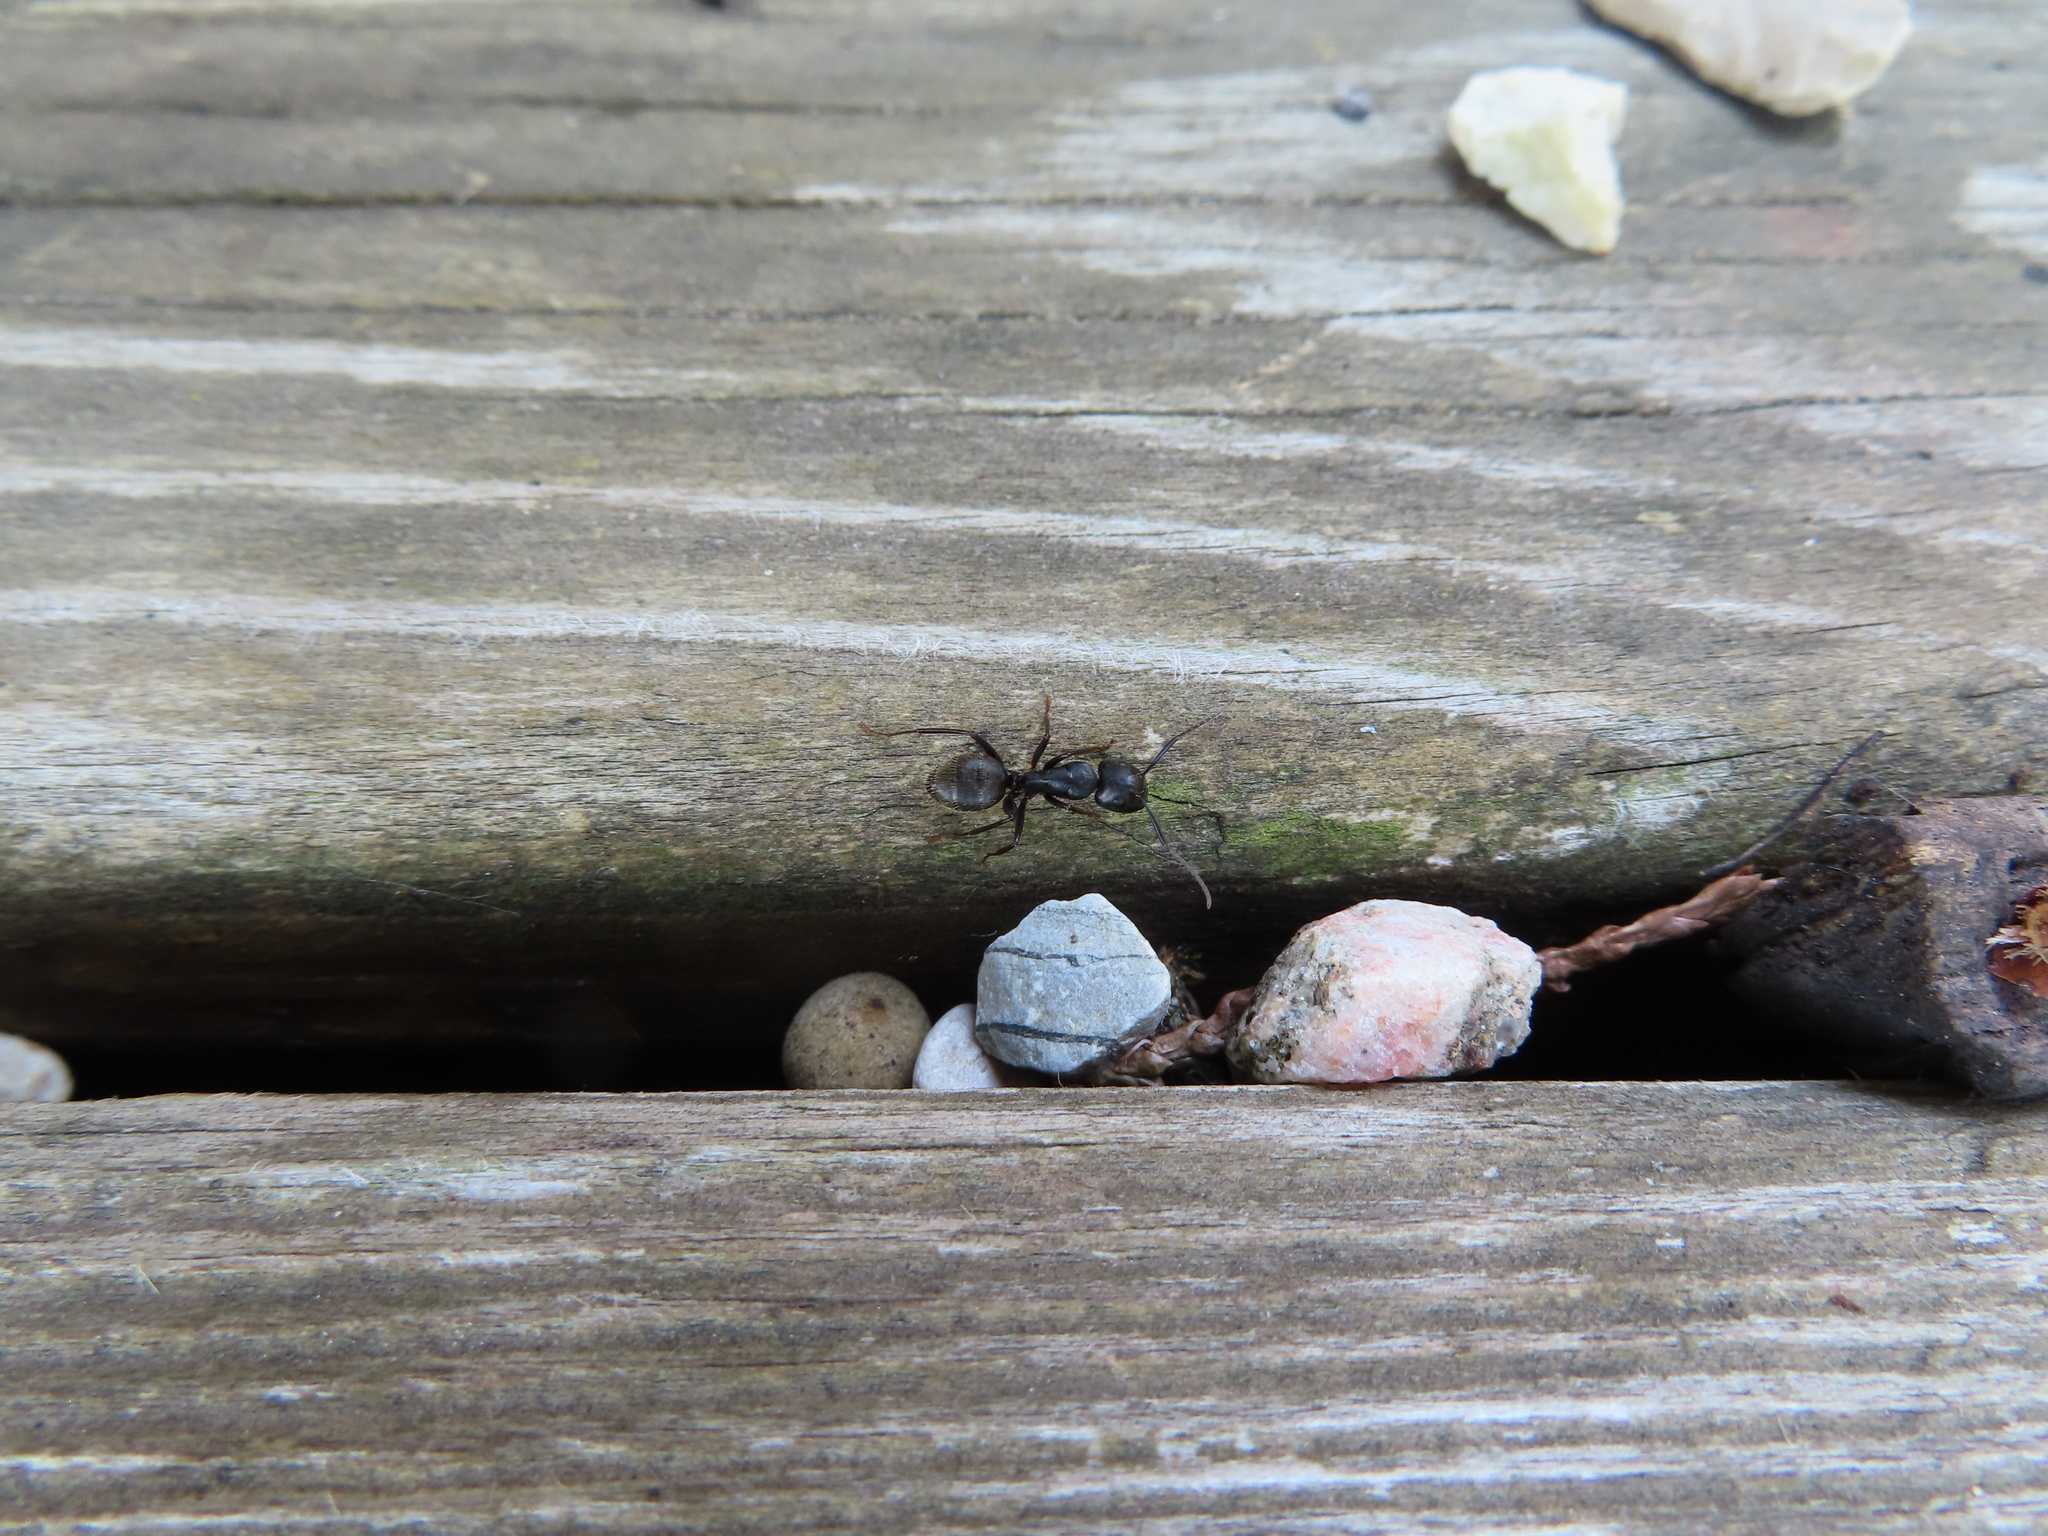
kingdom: Animalia
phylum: Arthropoda
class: Insecta
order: Hymenoptera
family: Formicidae
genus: Camponotus
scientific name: Camponotus pennsylvanicus
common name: Black carpenter ant
